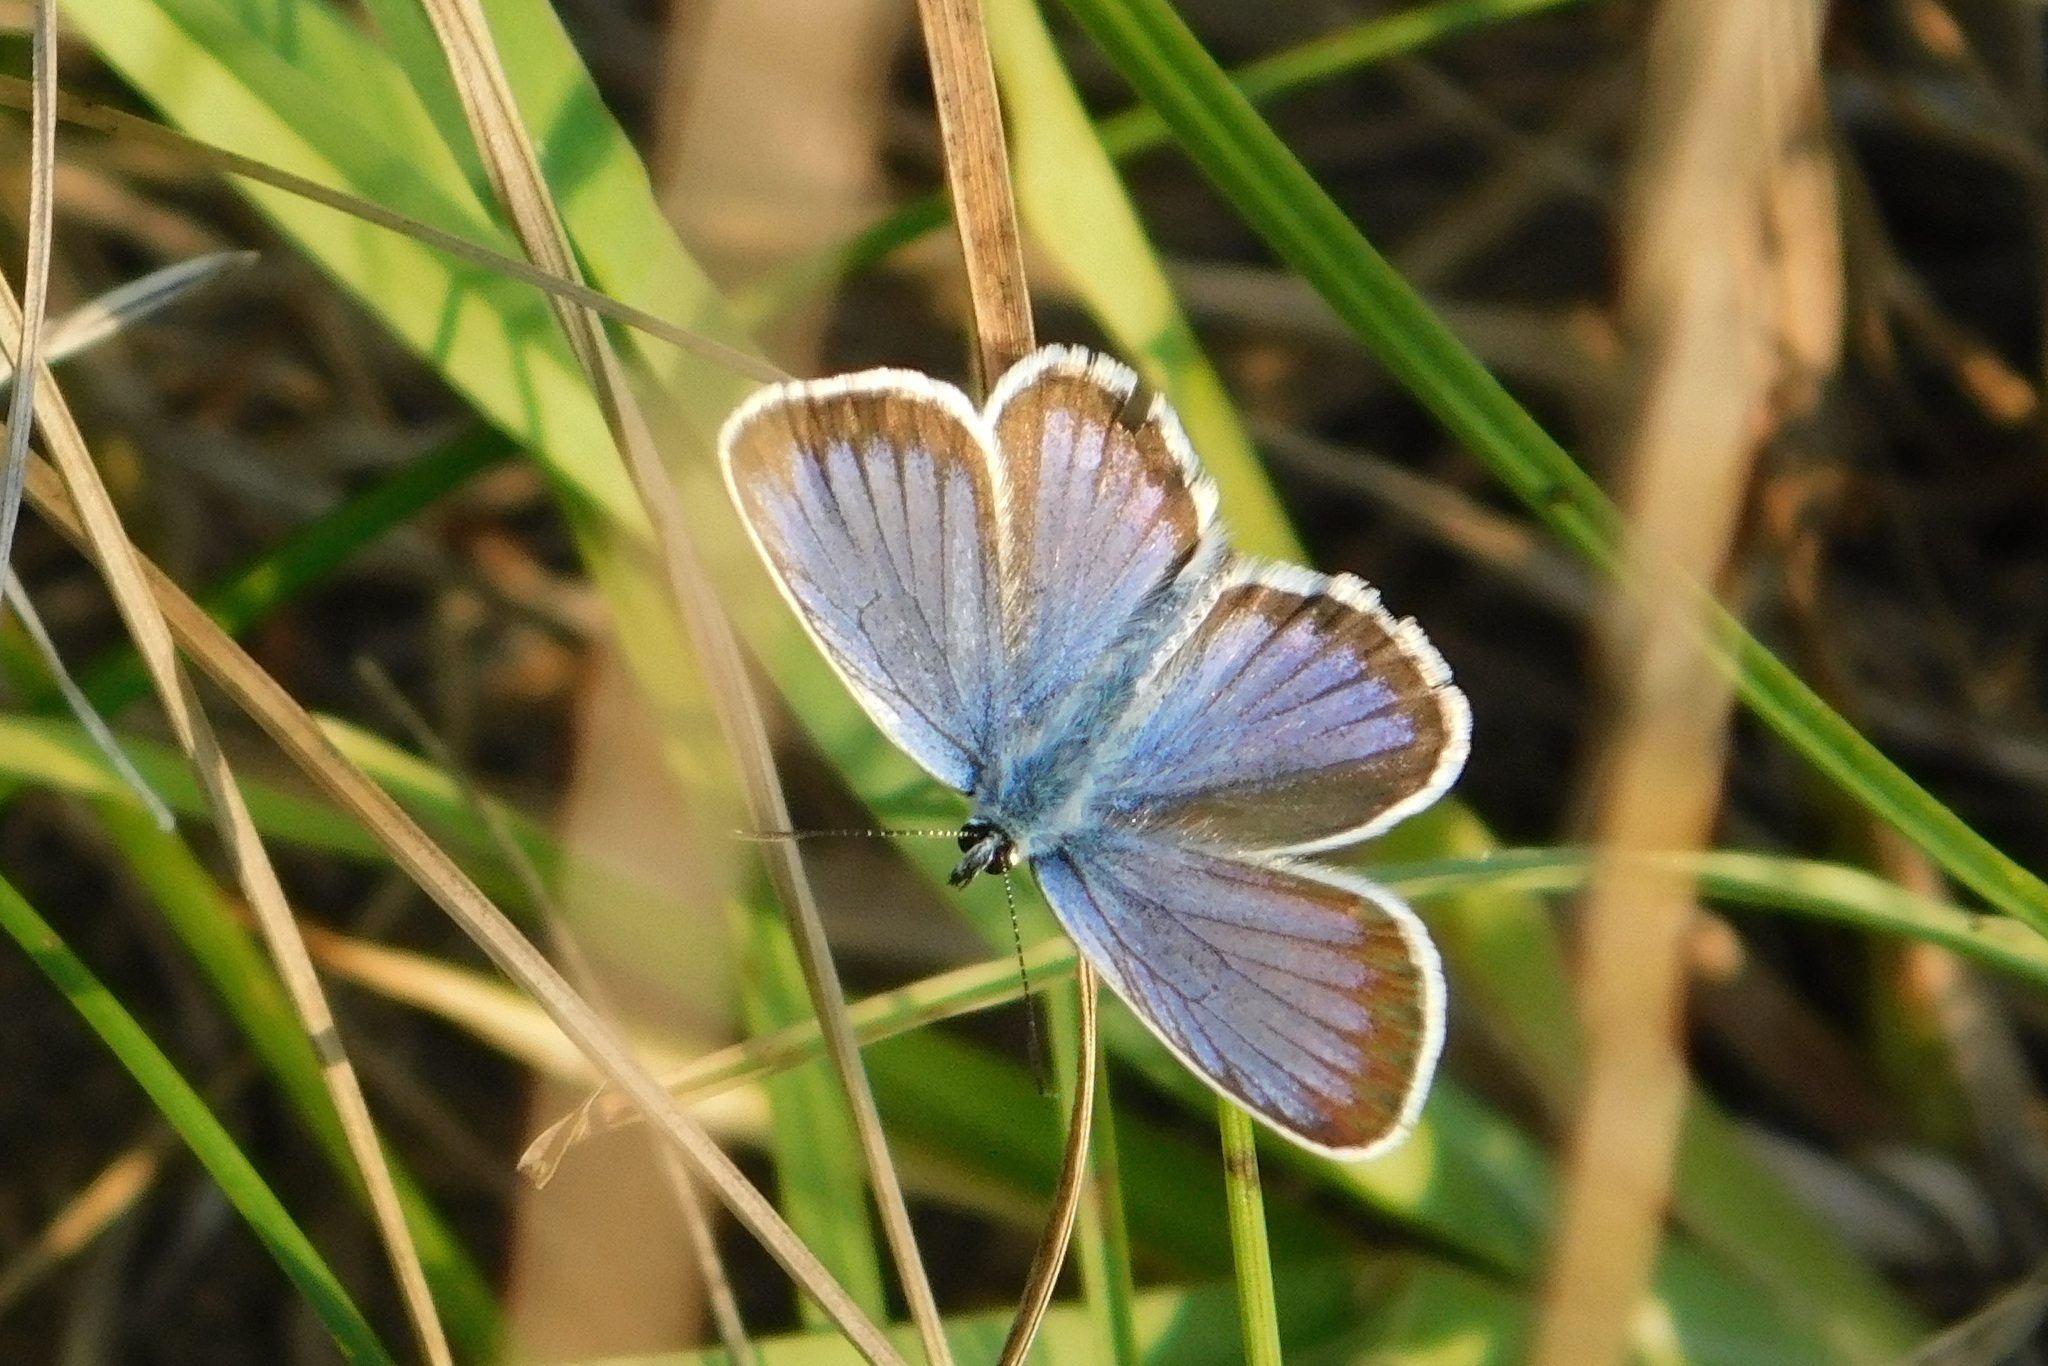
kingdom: Animalia
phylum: Arthropoda
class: Insecta
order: Lepidoptera
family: Lycaenidae
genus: Plebejus
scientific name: Plebejus argus
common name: Silver-studded blue
